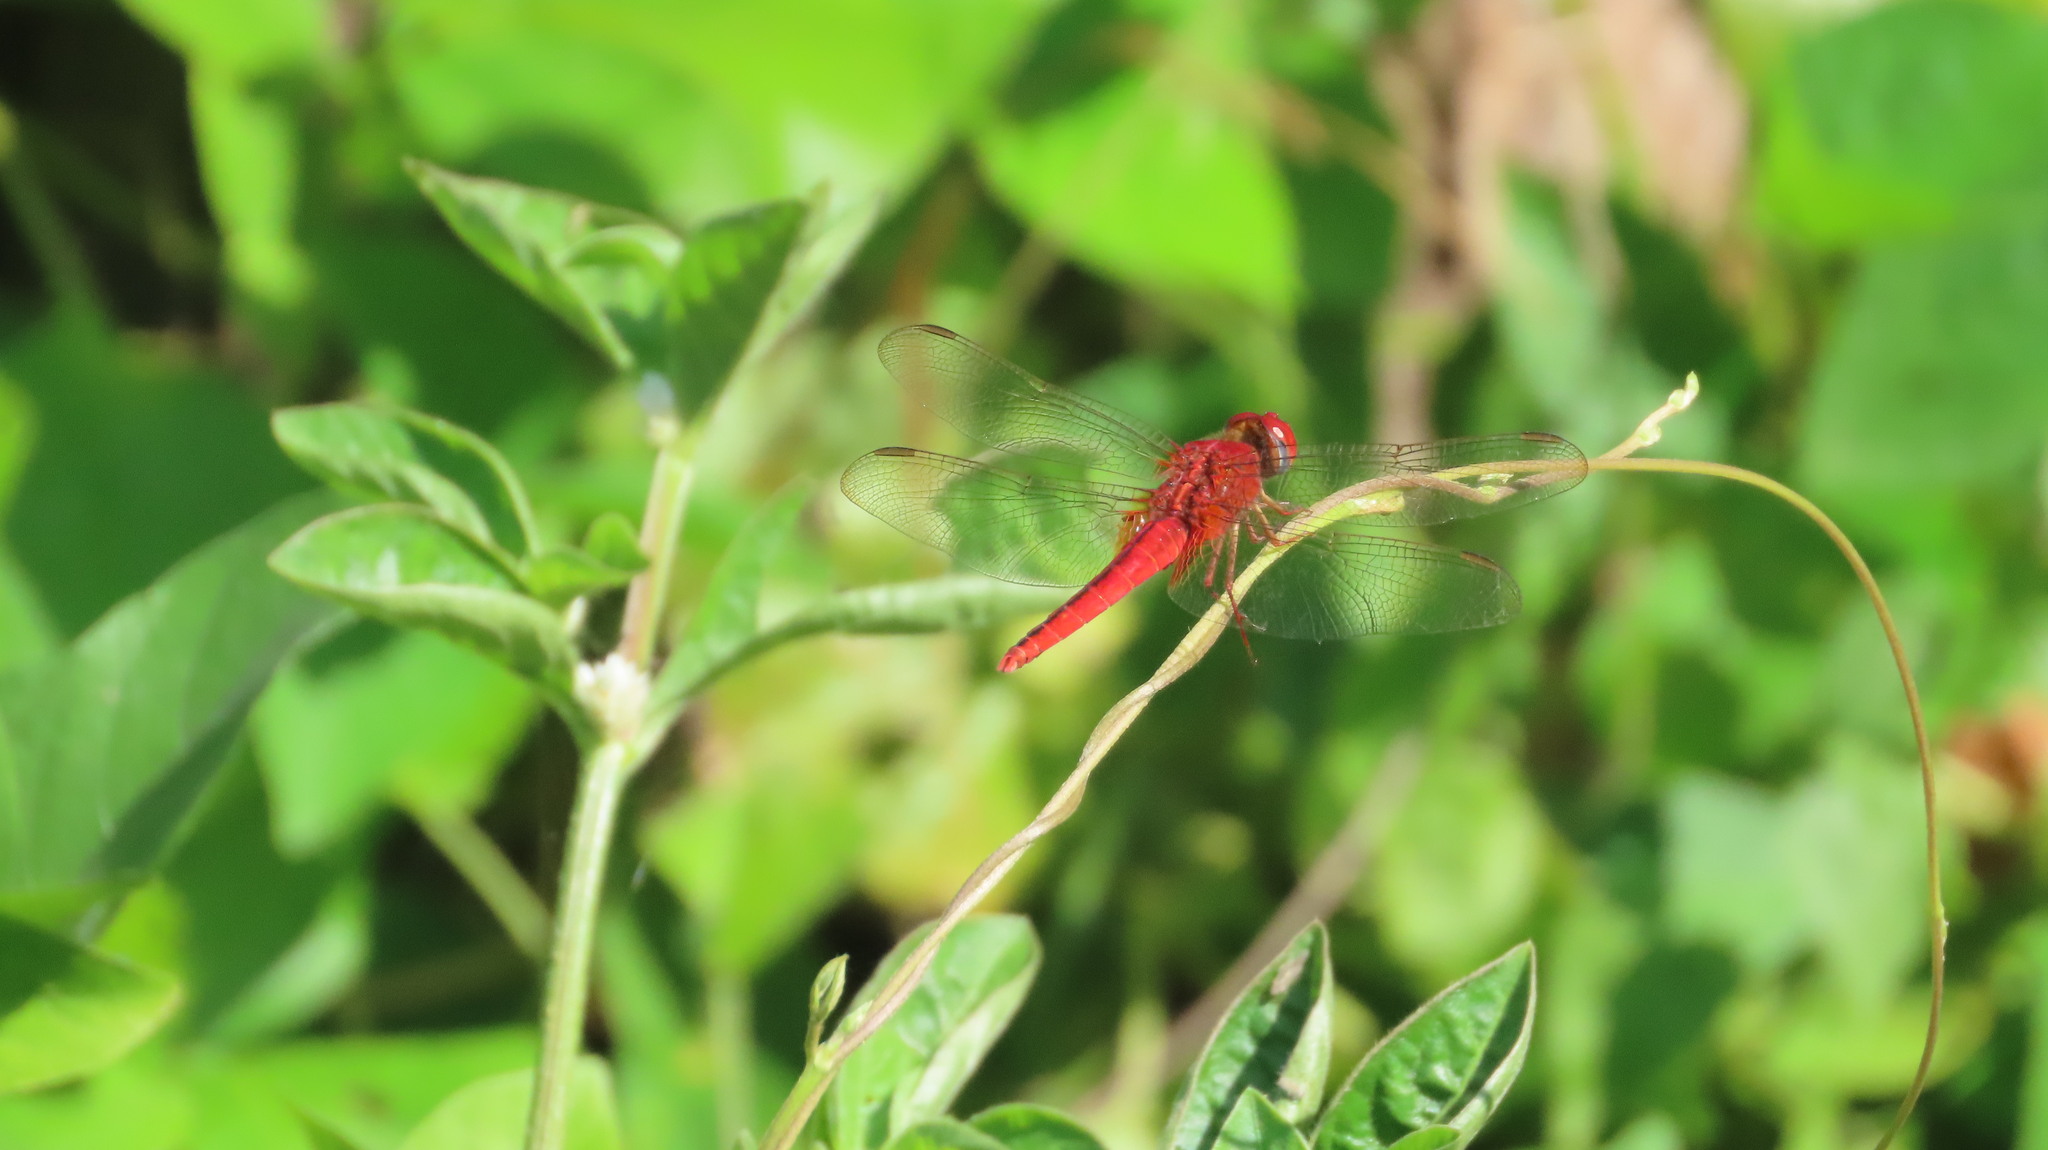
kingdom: Animalia
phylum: Arthropoda
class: Insecta
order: Odonata
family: Libellulidae
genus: Crocothemis
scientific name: Crocothemis servilia
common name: Scarlet skimmer
